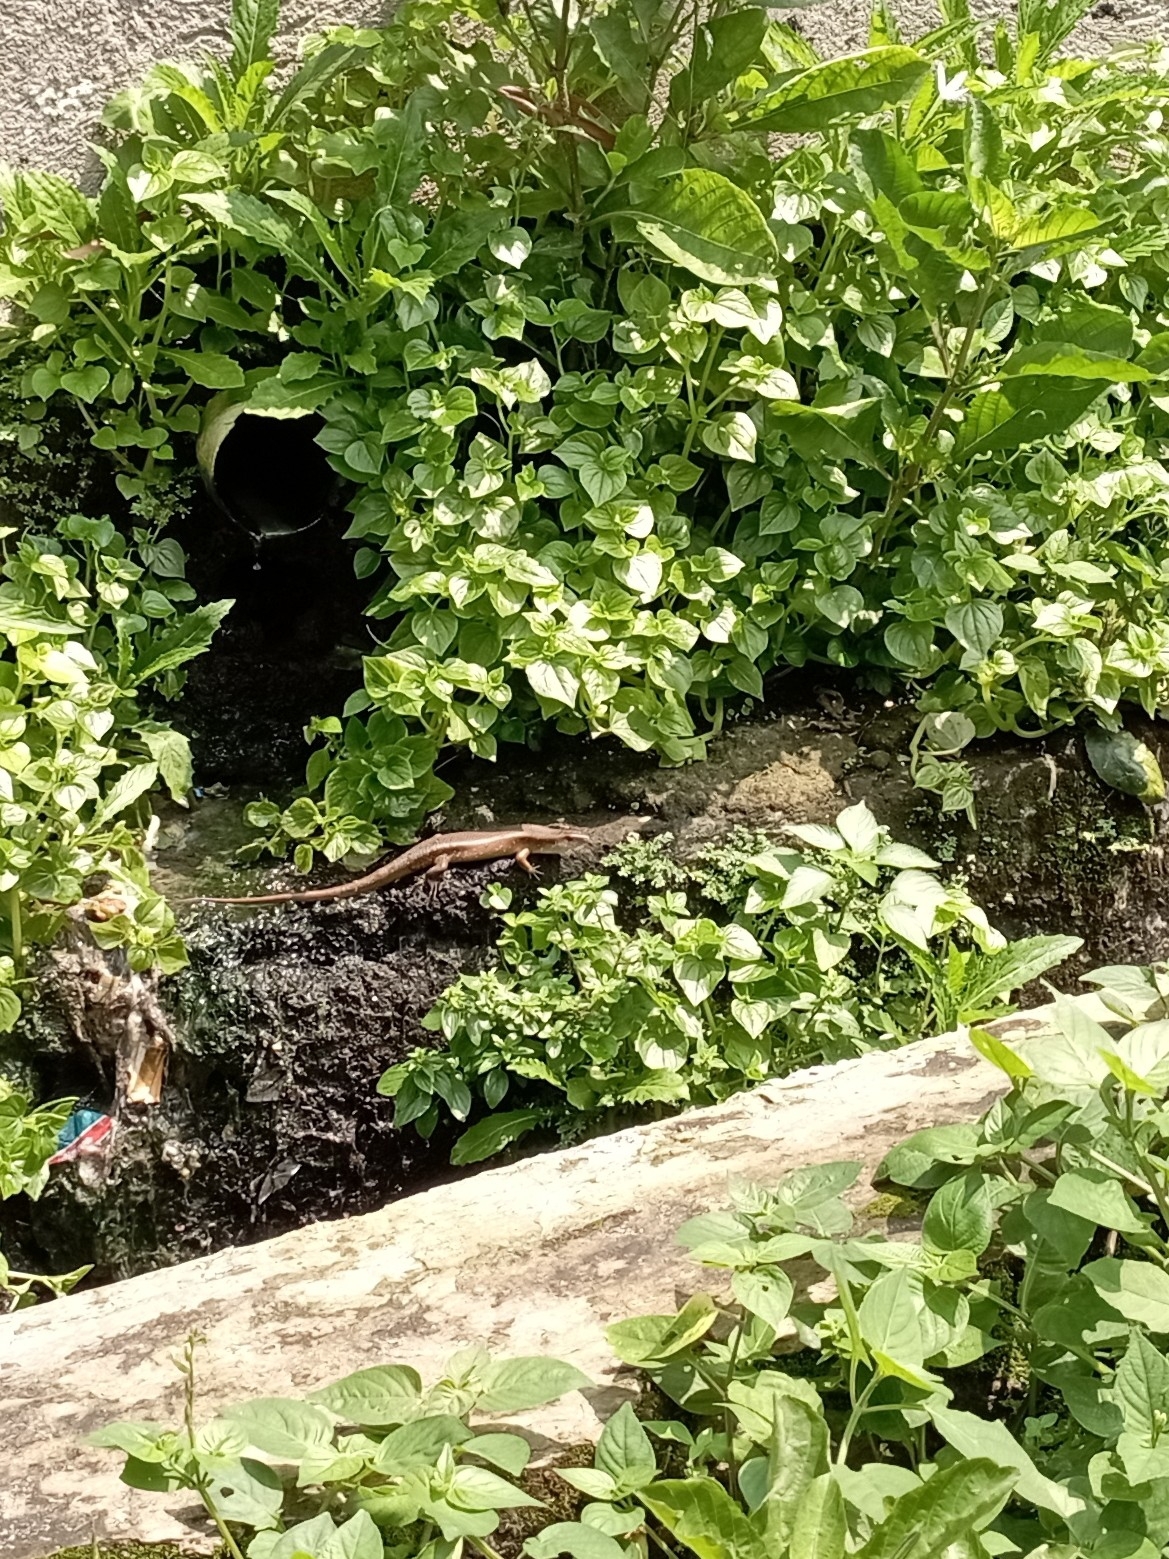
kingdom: Animalia
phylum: Chordata
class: Squamata
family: Scincidae
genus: Eutropis
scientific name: Eutropis multifasciata
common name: Common mabuya
